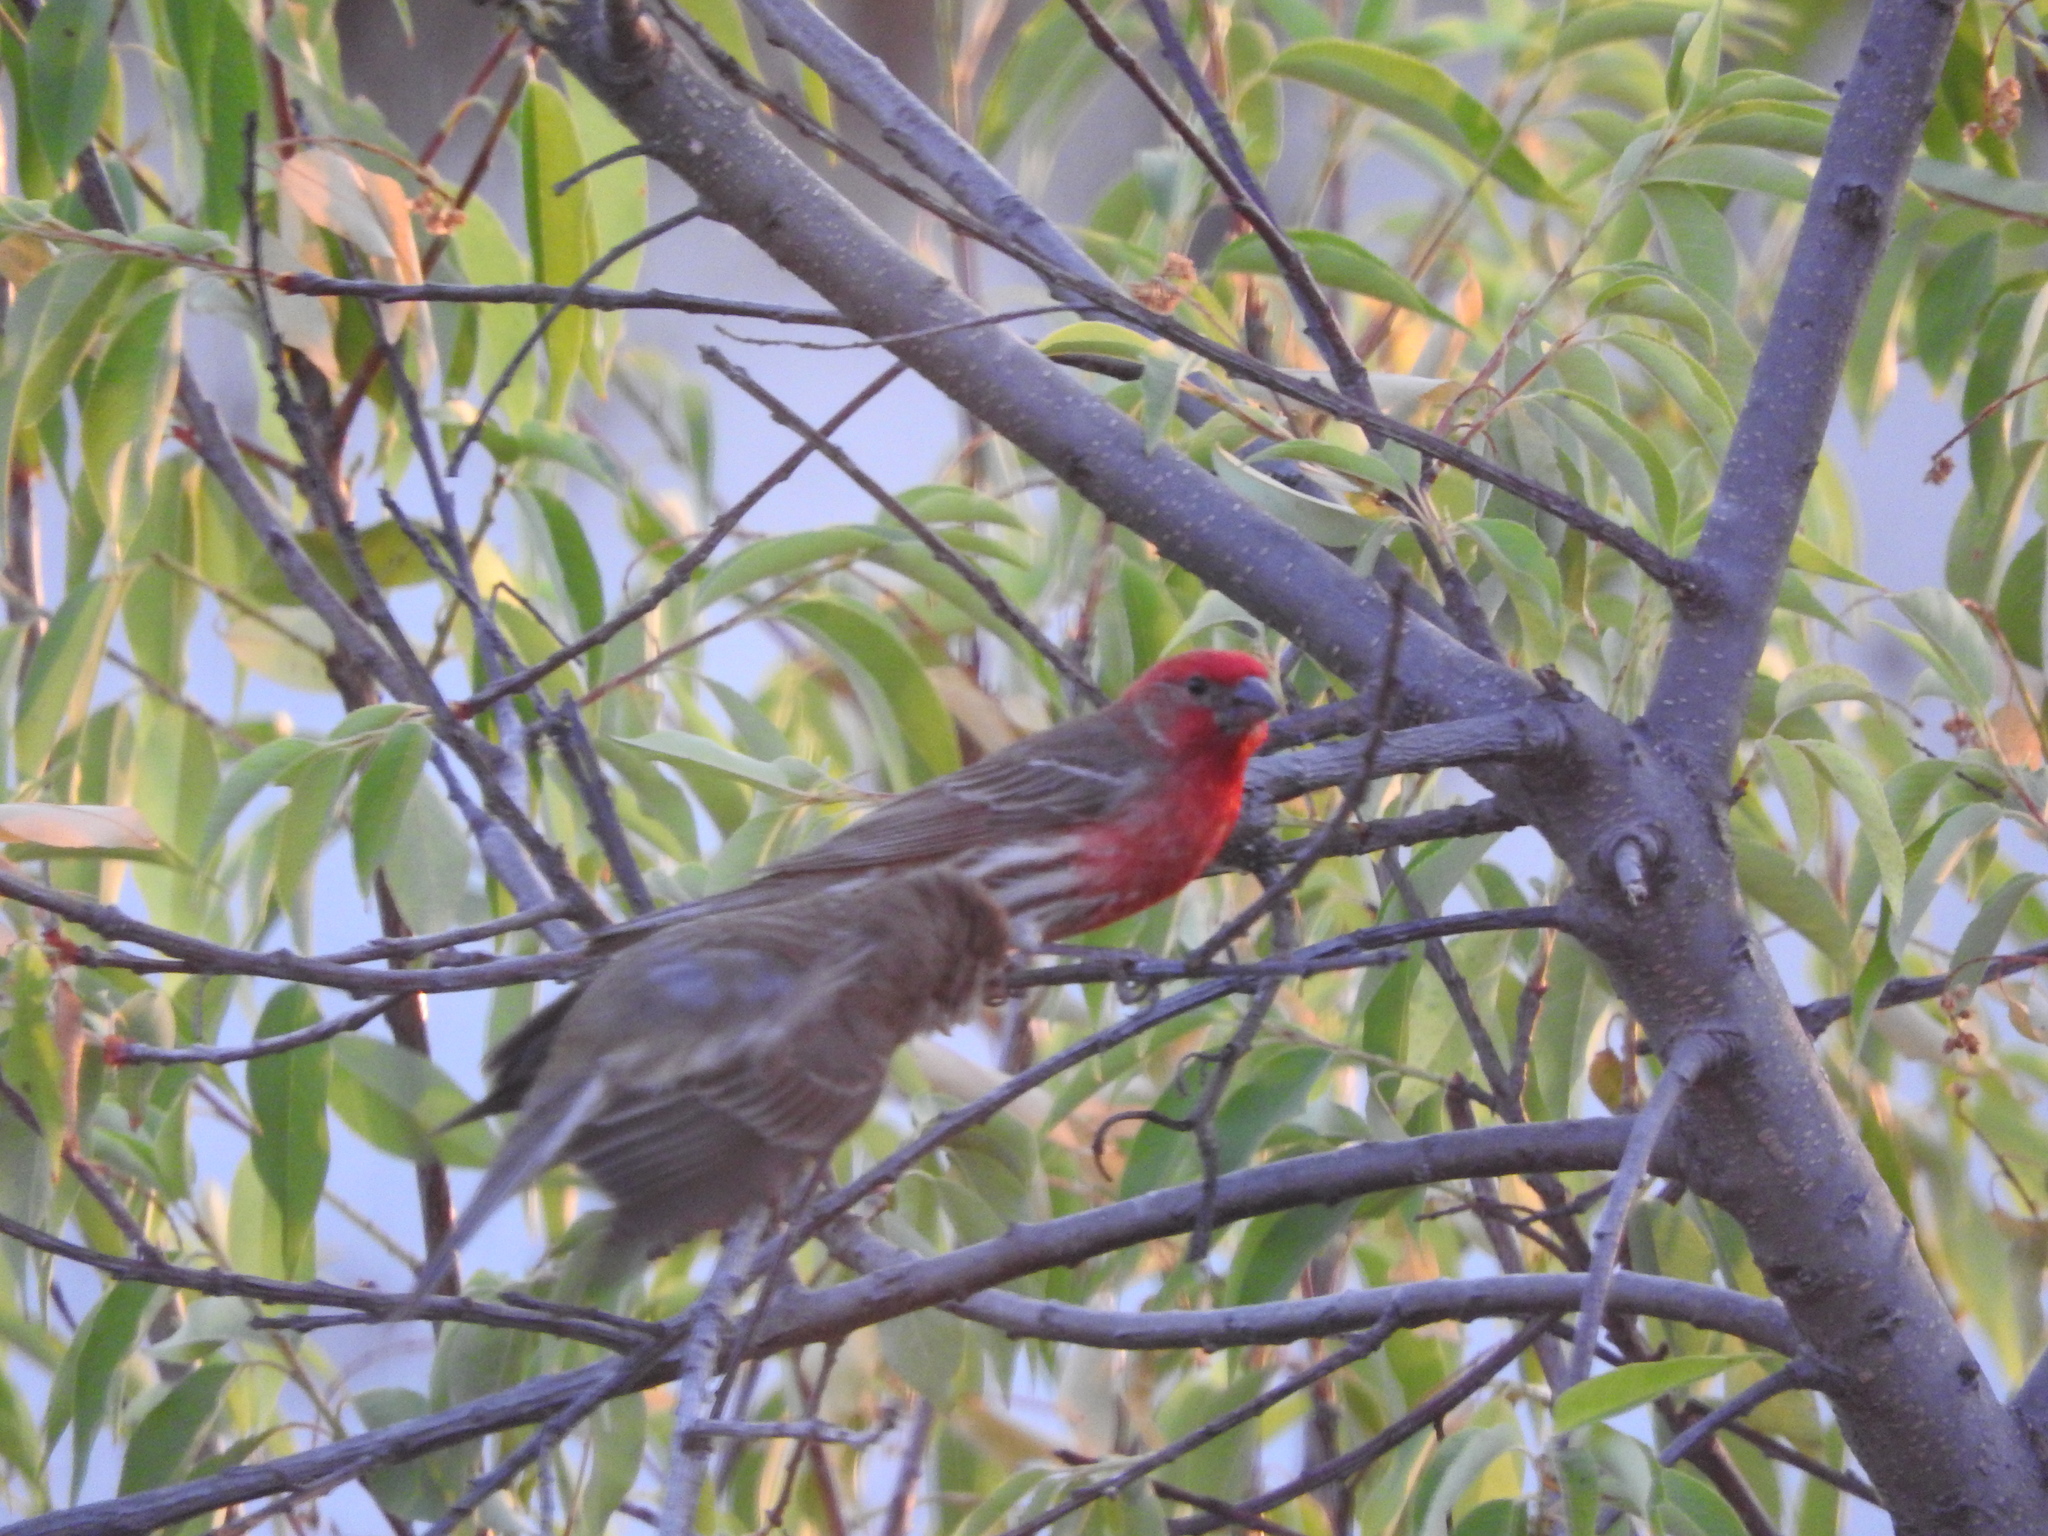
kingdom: Animalia
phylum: Chordata
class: Aves
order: Passeriformes
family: Fringillidae
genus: Haemorhous
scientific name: Haemorhous mexicanus
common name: House finch
